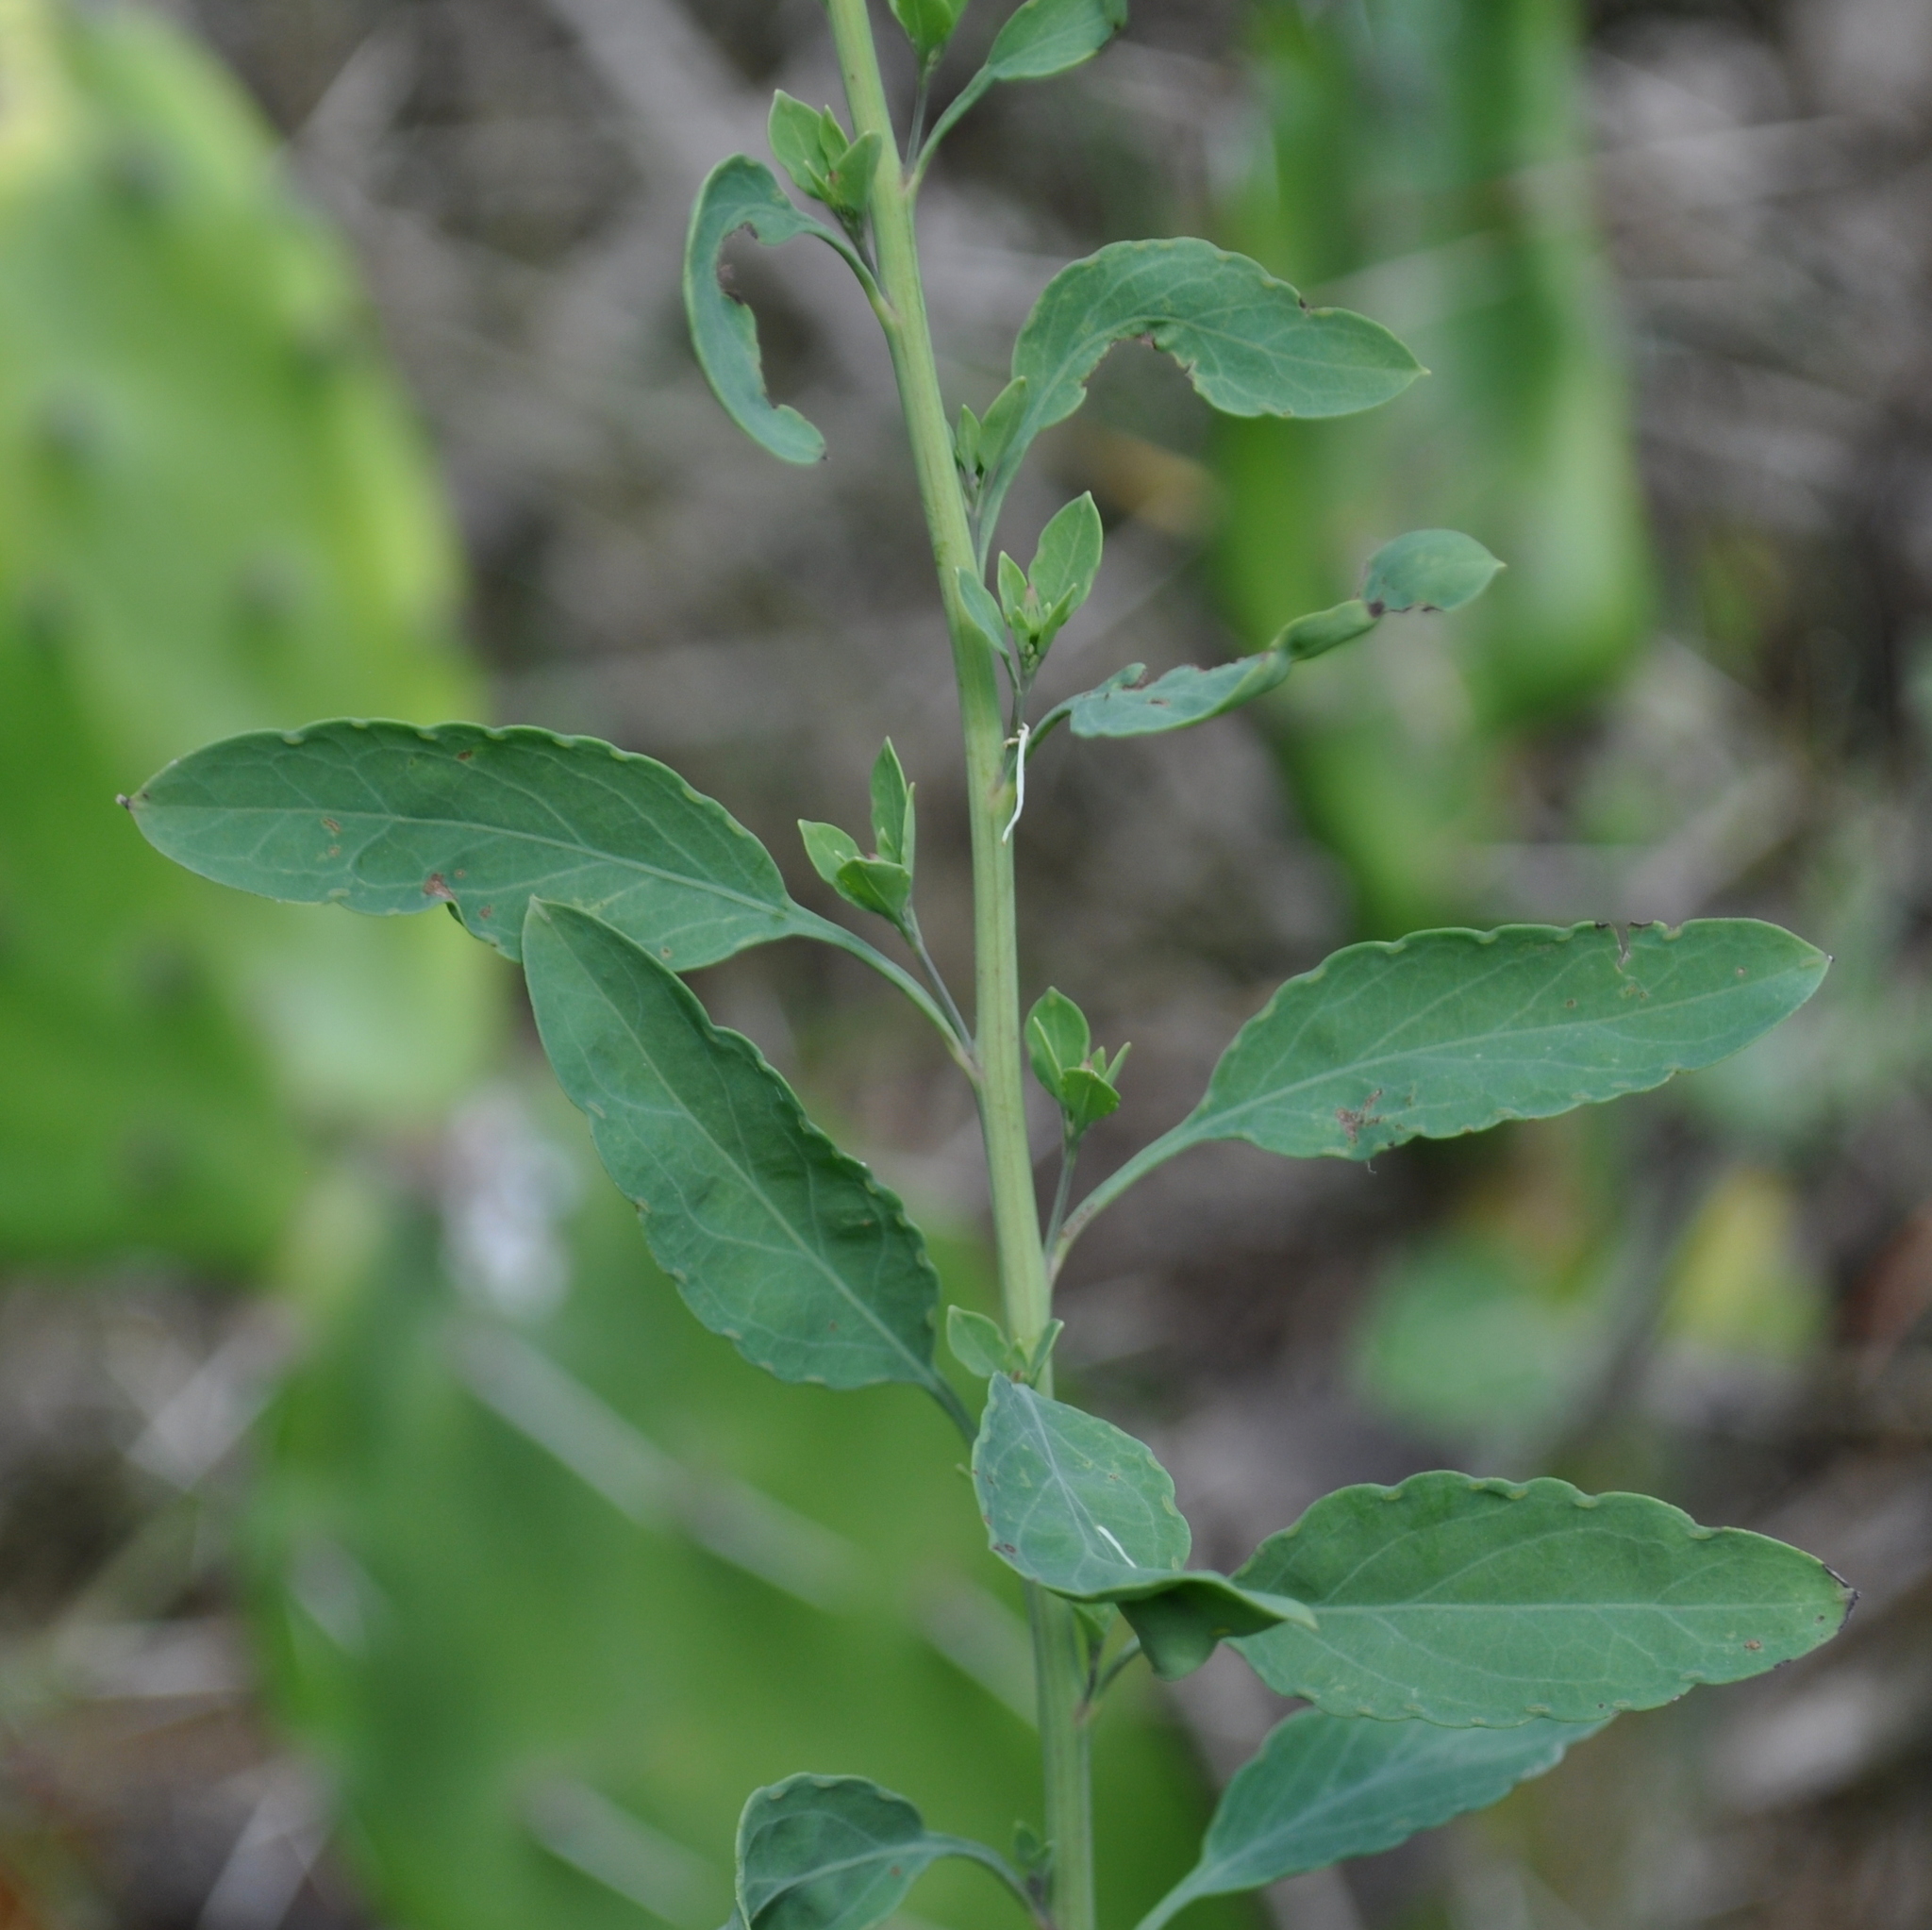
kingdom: Plantae
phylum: Tracheophyta
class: Magnoliopsida
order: Asterales
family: Asteraceae
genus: Porophyllum
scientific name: Porophyllum ruderale
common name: Yerba porosa
